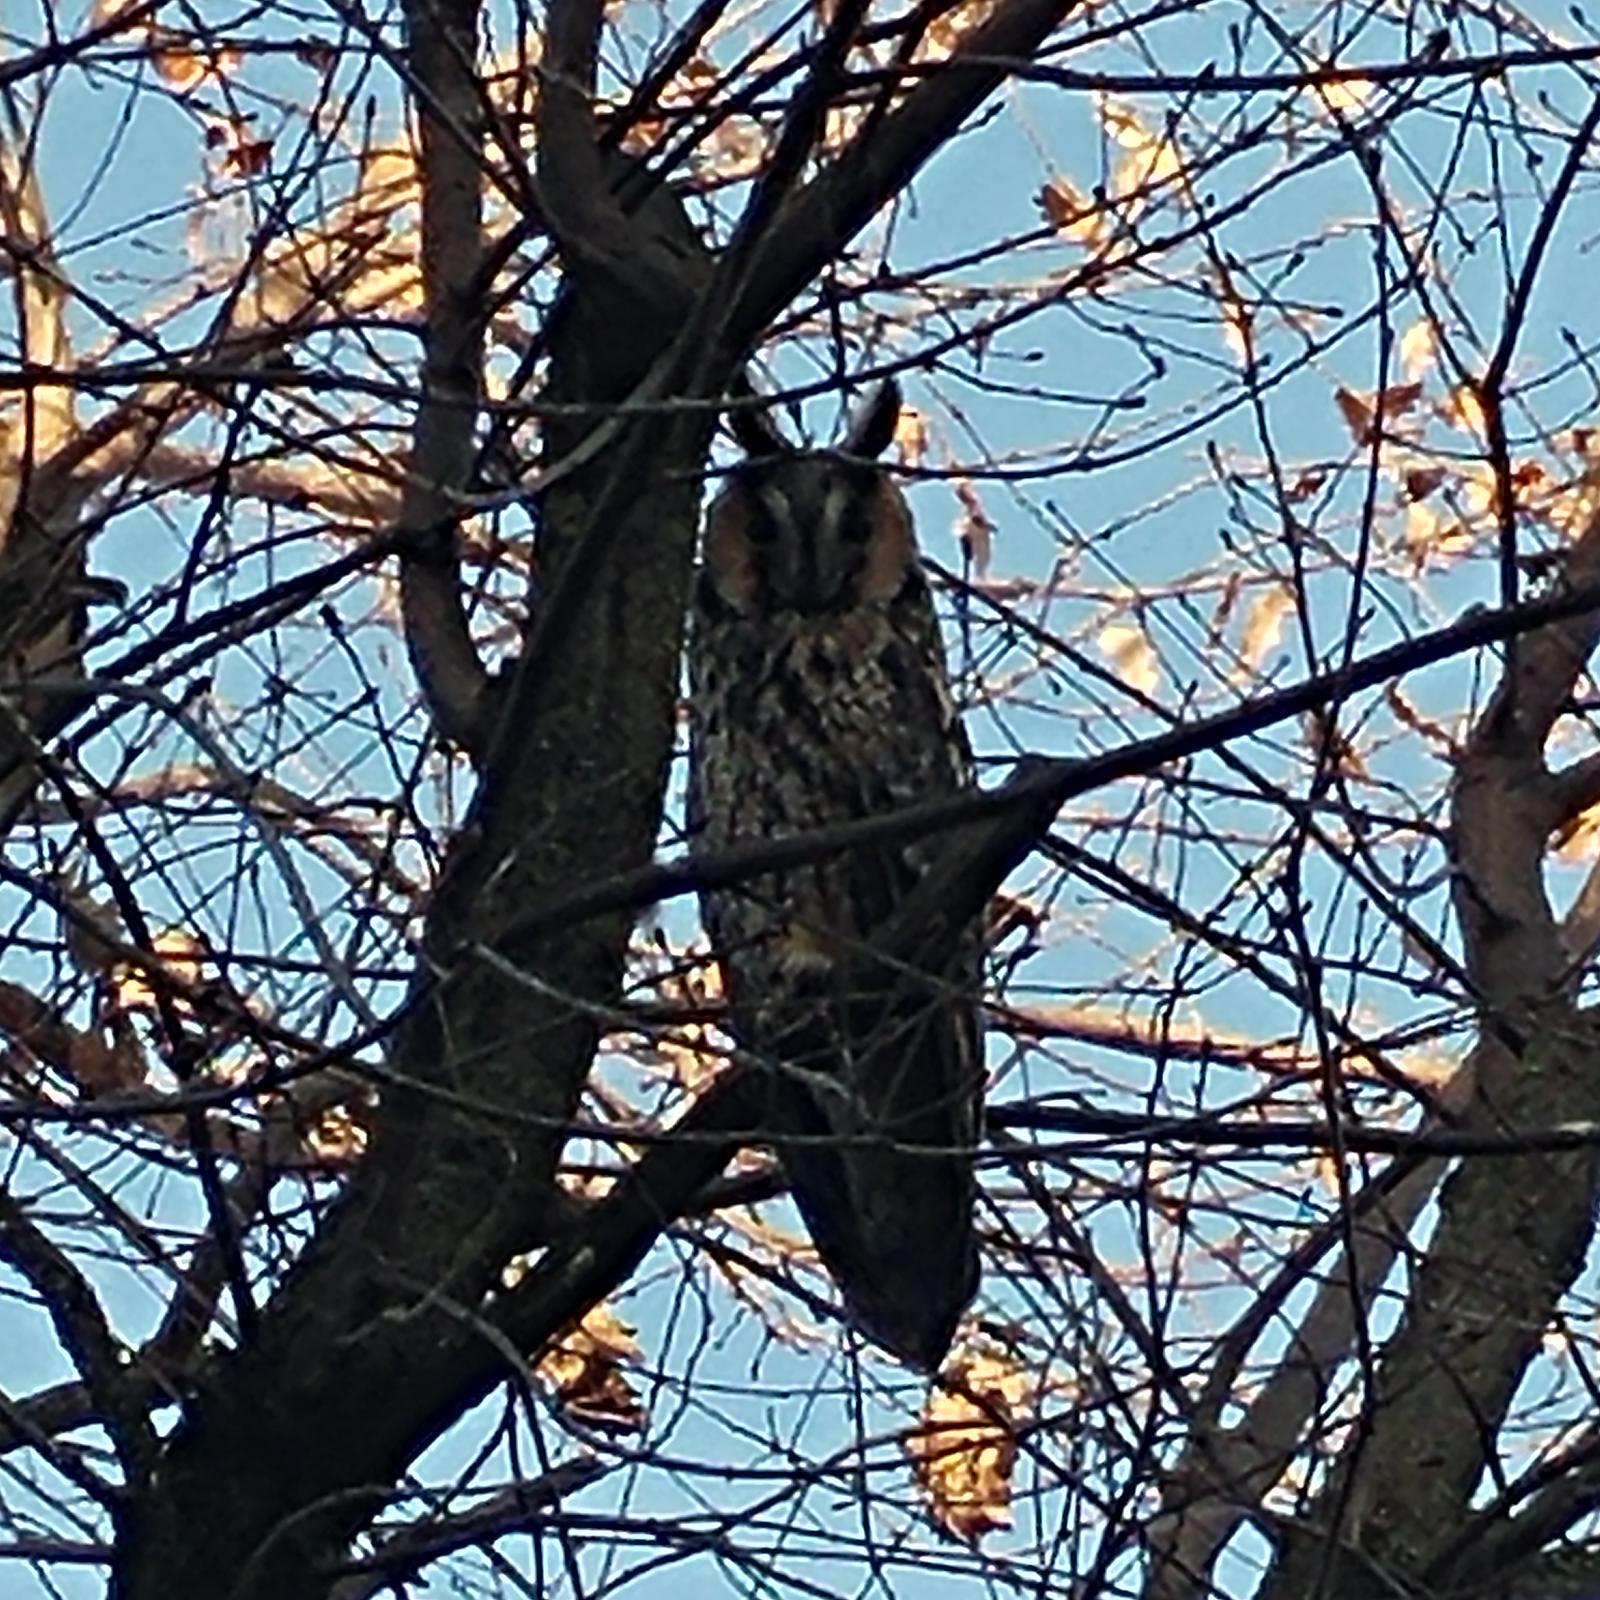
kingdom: Animalia
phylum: Chordata
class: Aves
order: Strigiformes
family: Strigidae
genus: Asio
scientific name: Asio otus
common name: Long-eared owl
